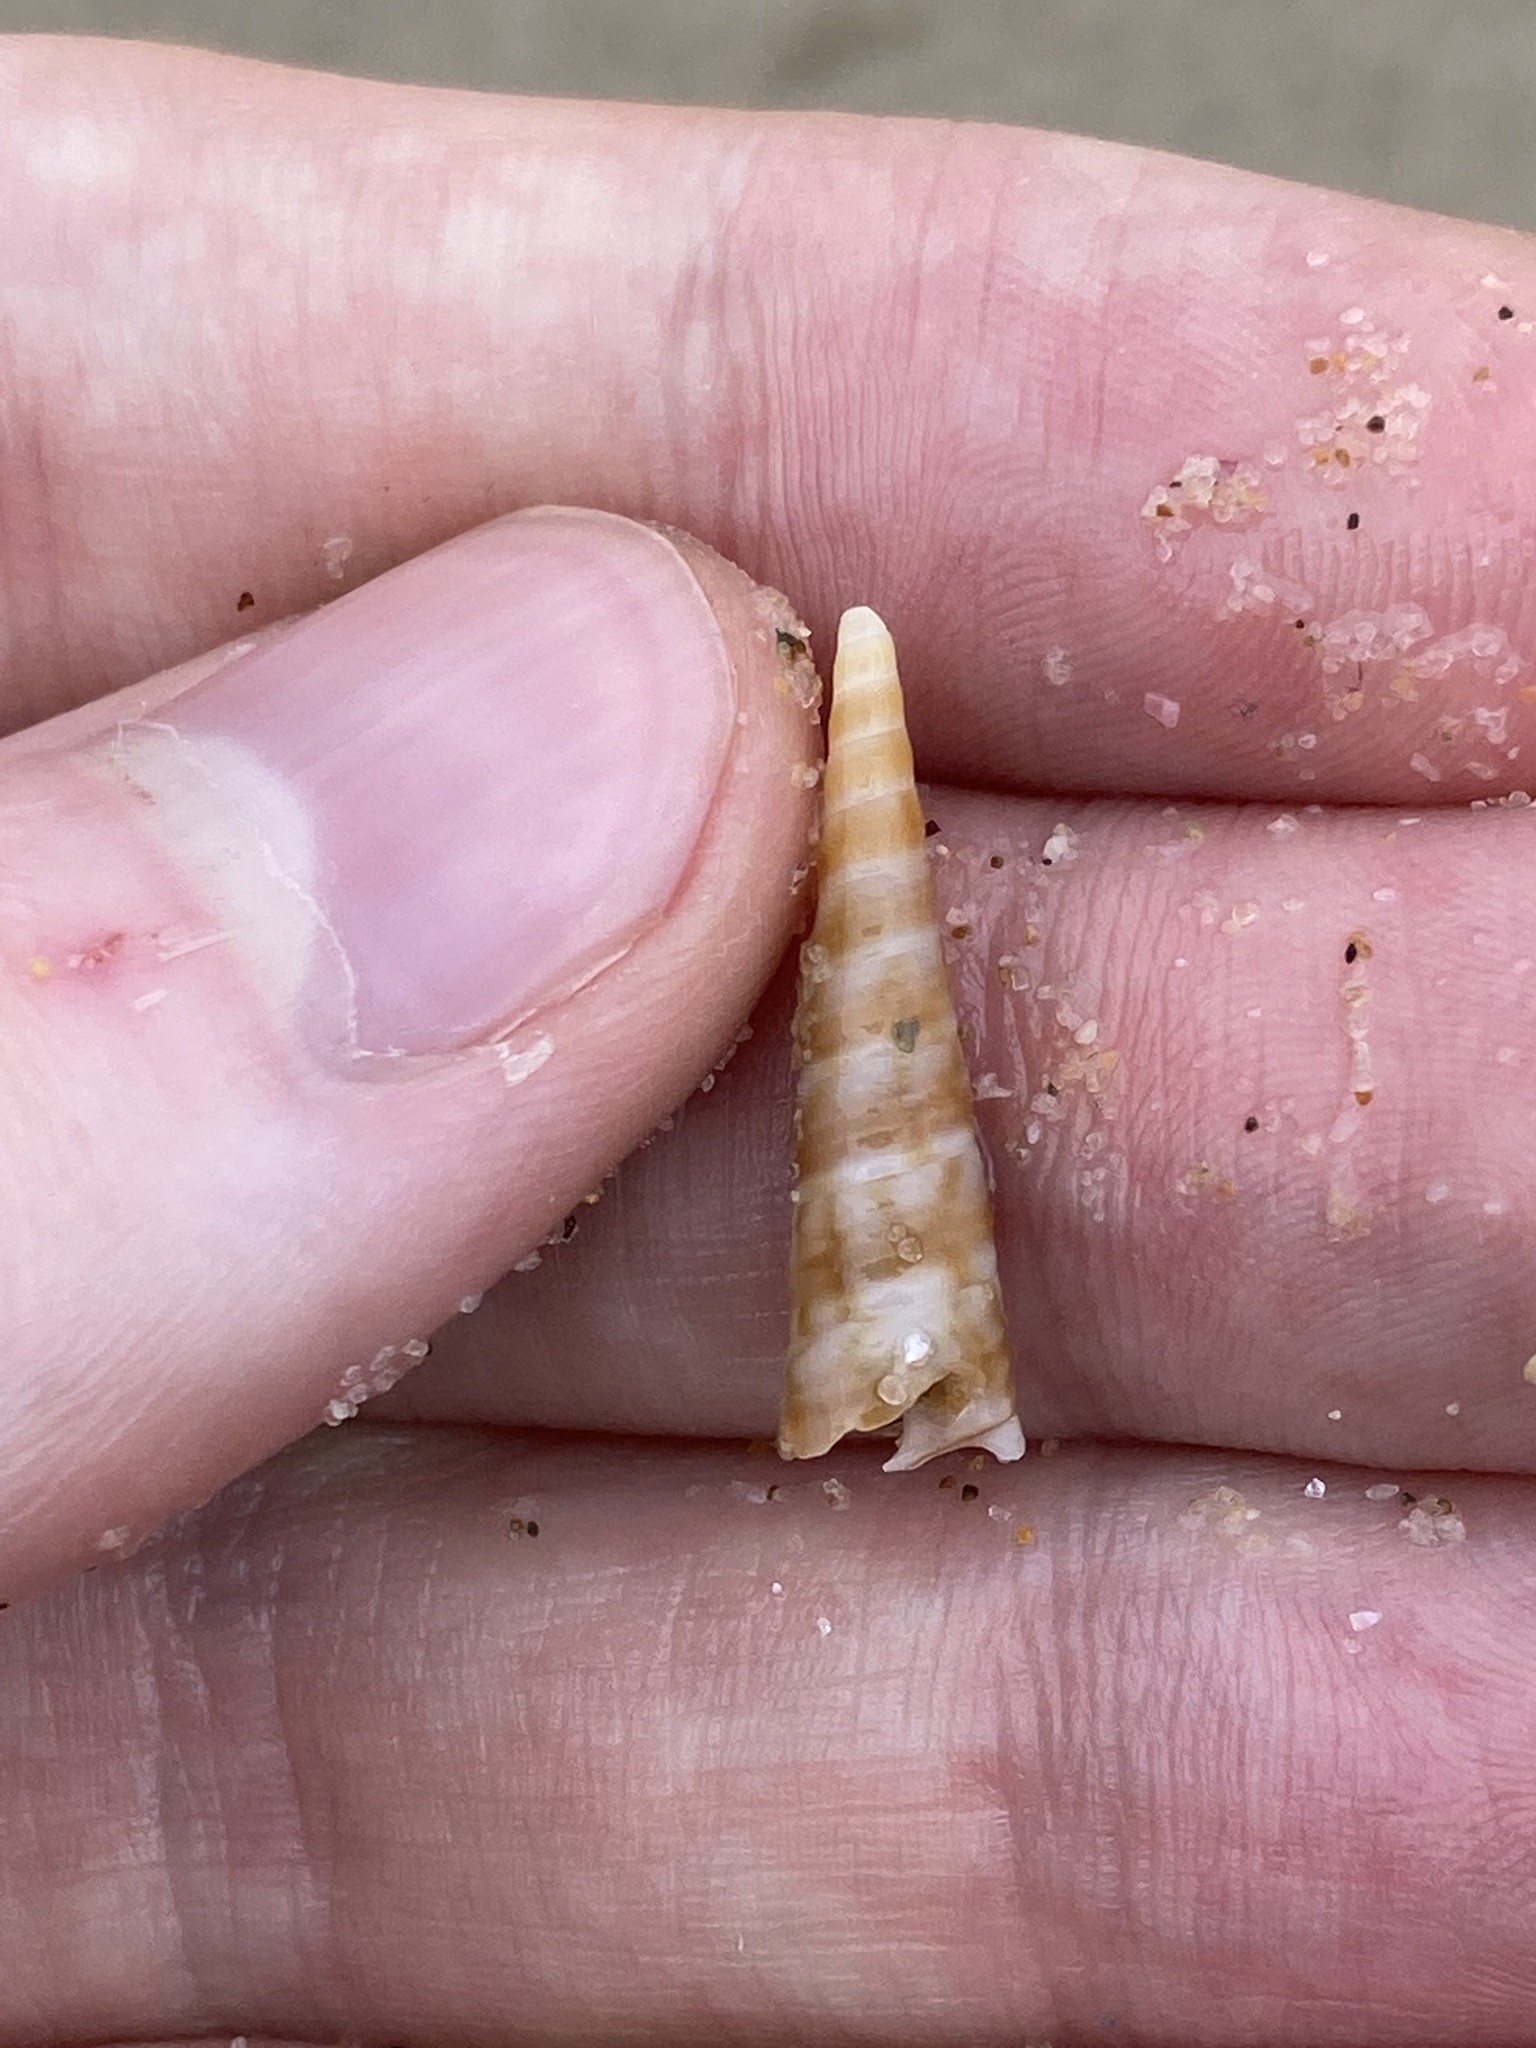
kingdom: Animalia
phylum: Mollusca
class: Gastropoda
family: Turritellidae
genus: Gazameda
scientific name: Gazameda gunnii
